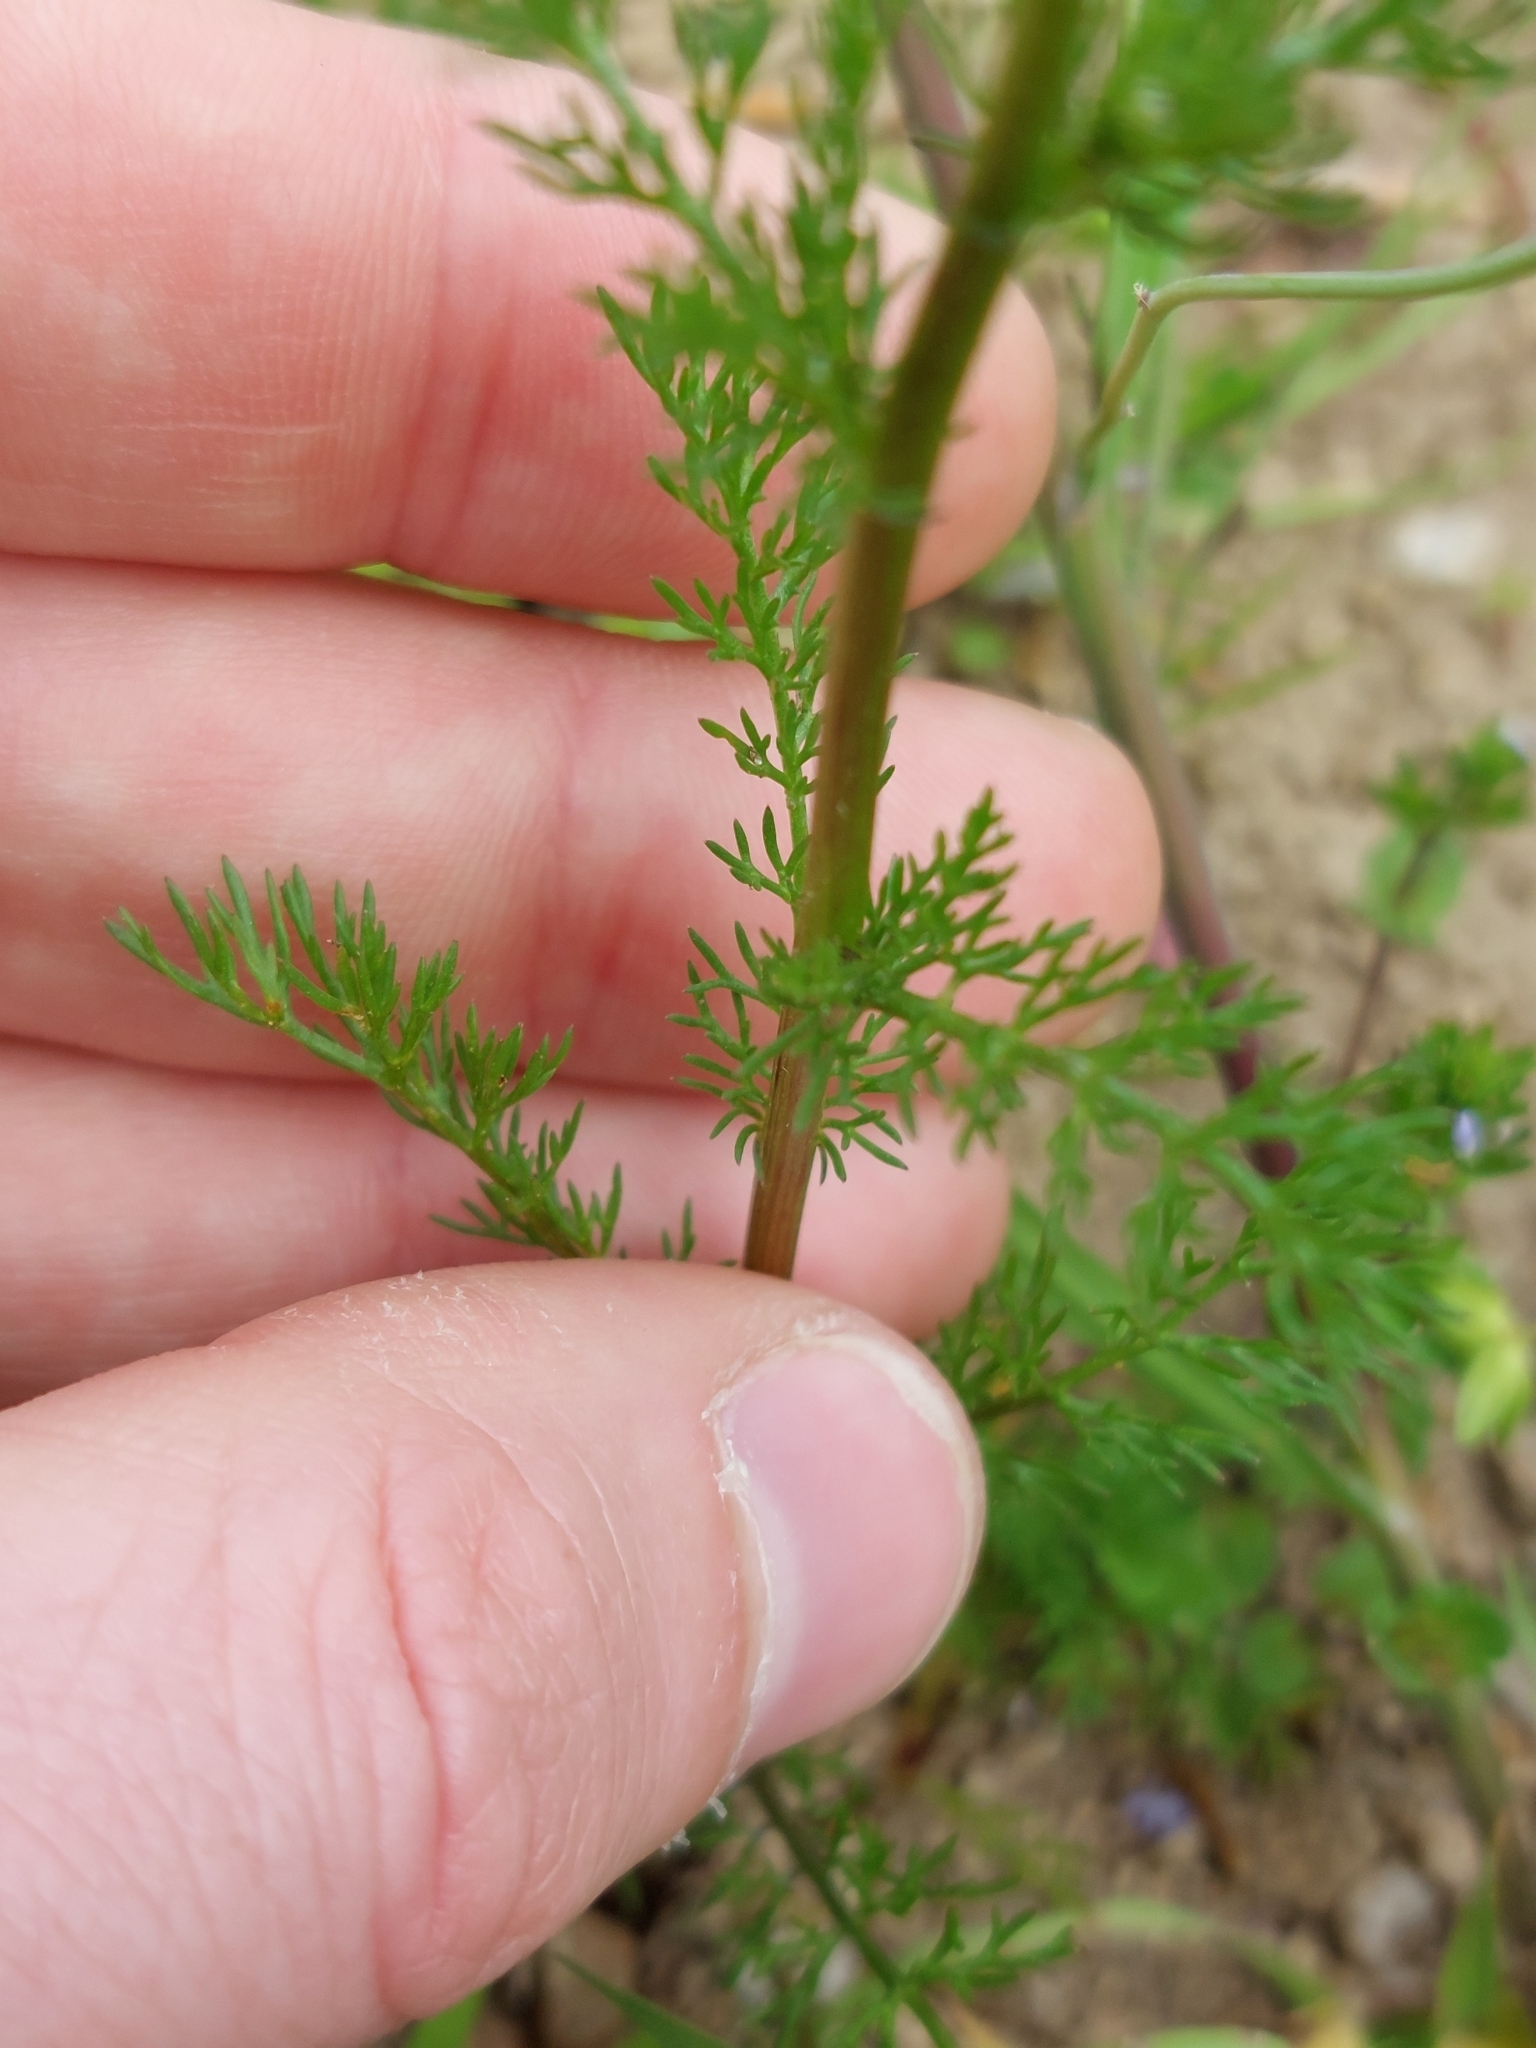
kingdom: Plantae
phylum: Tracheophyta
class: Magnoliopsida
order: Asterales
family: Asteraceae
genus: Matricaria
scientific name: Matricaria discoidea
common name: Disc mayweed
